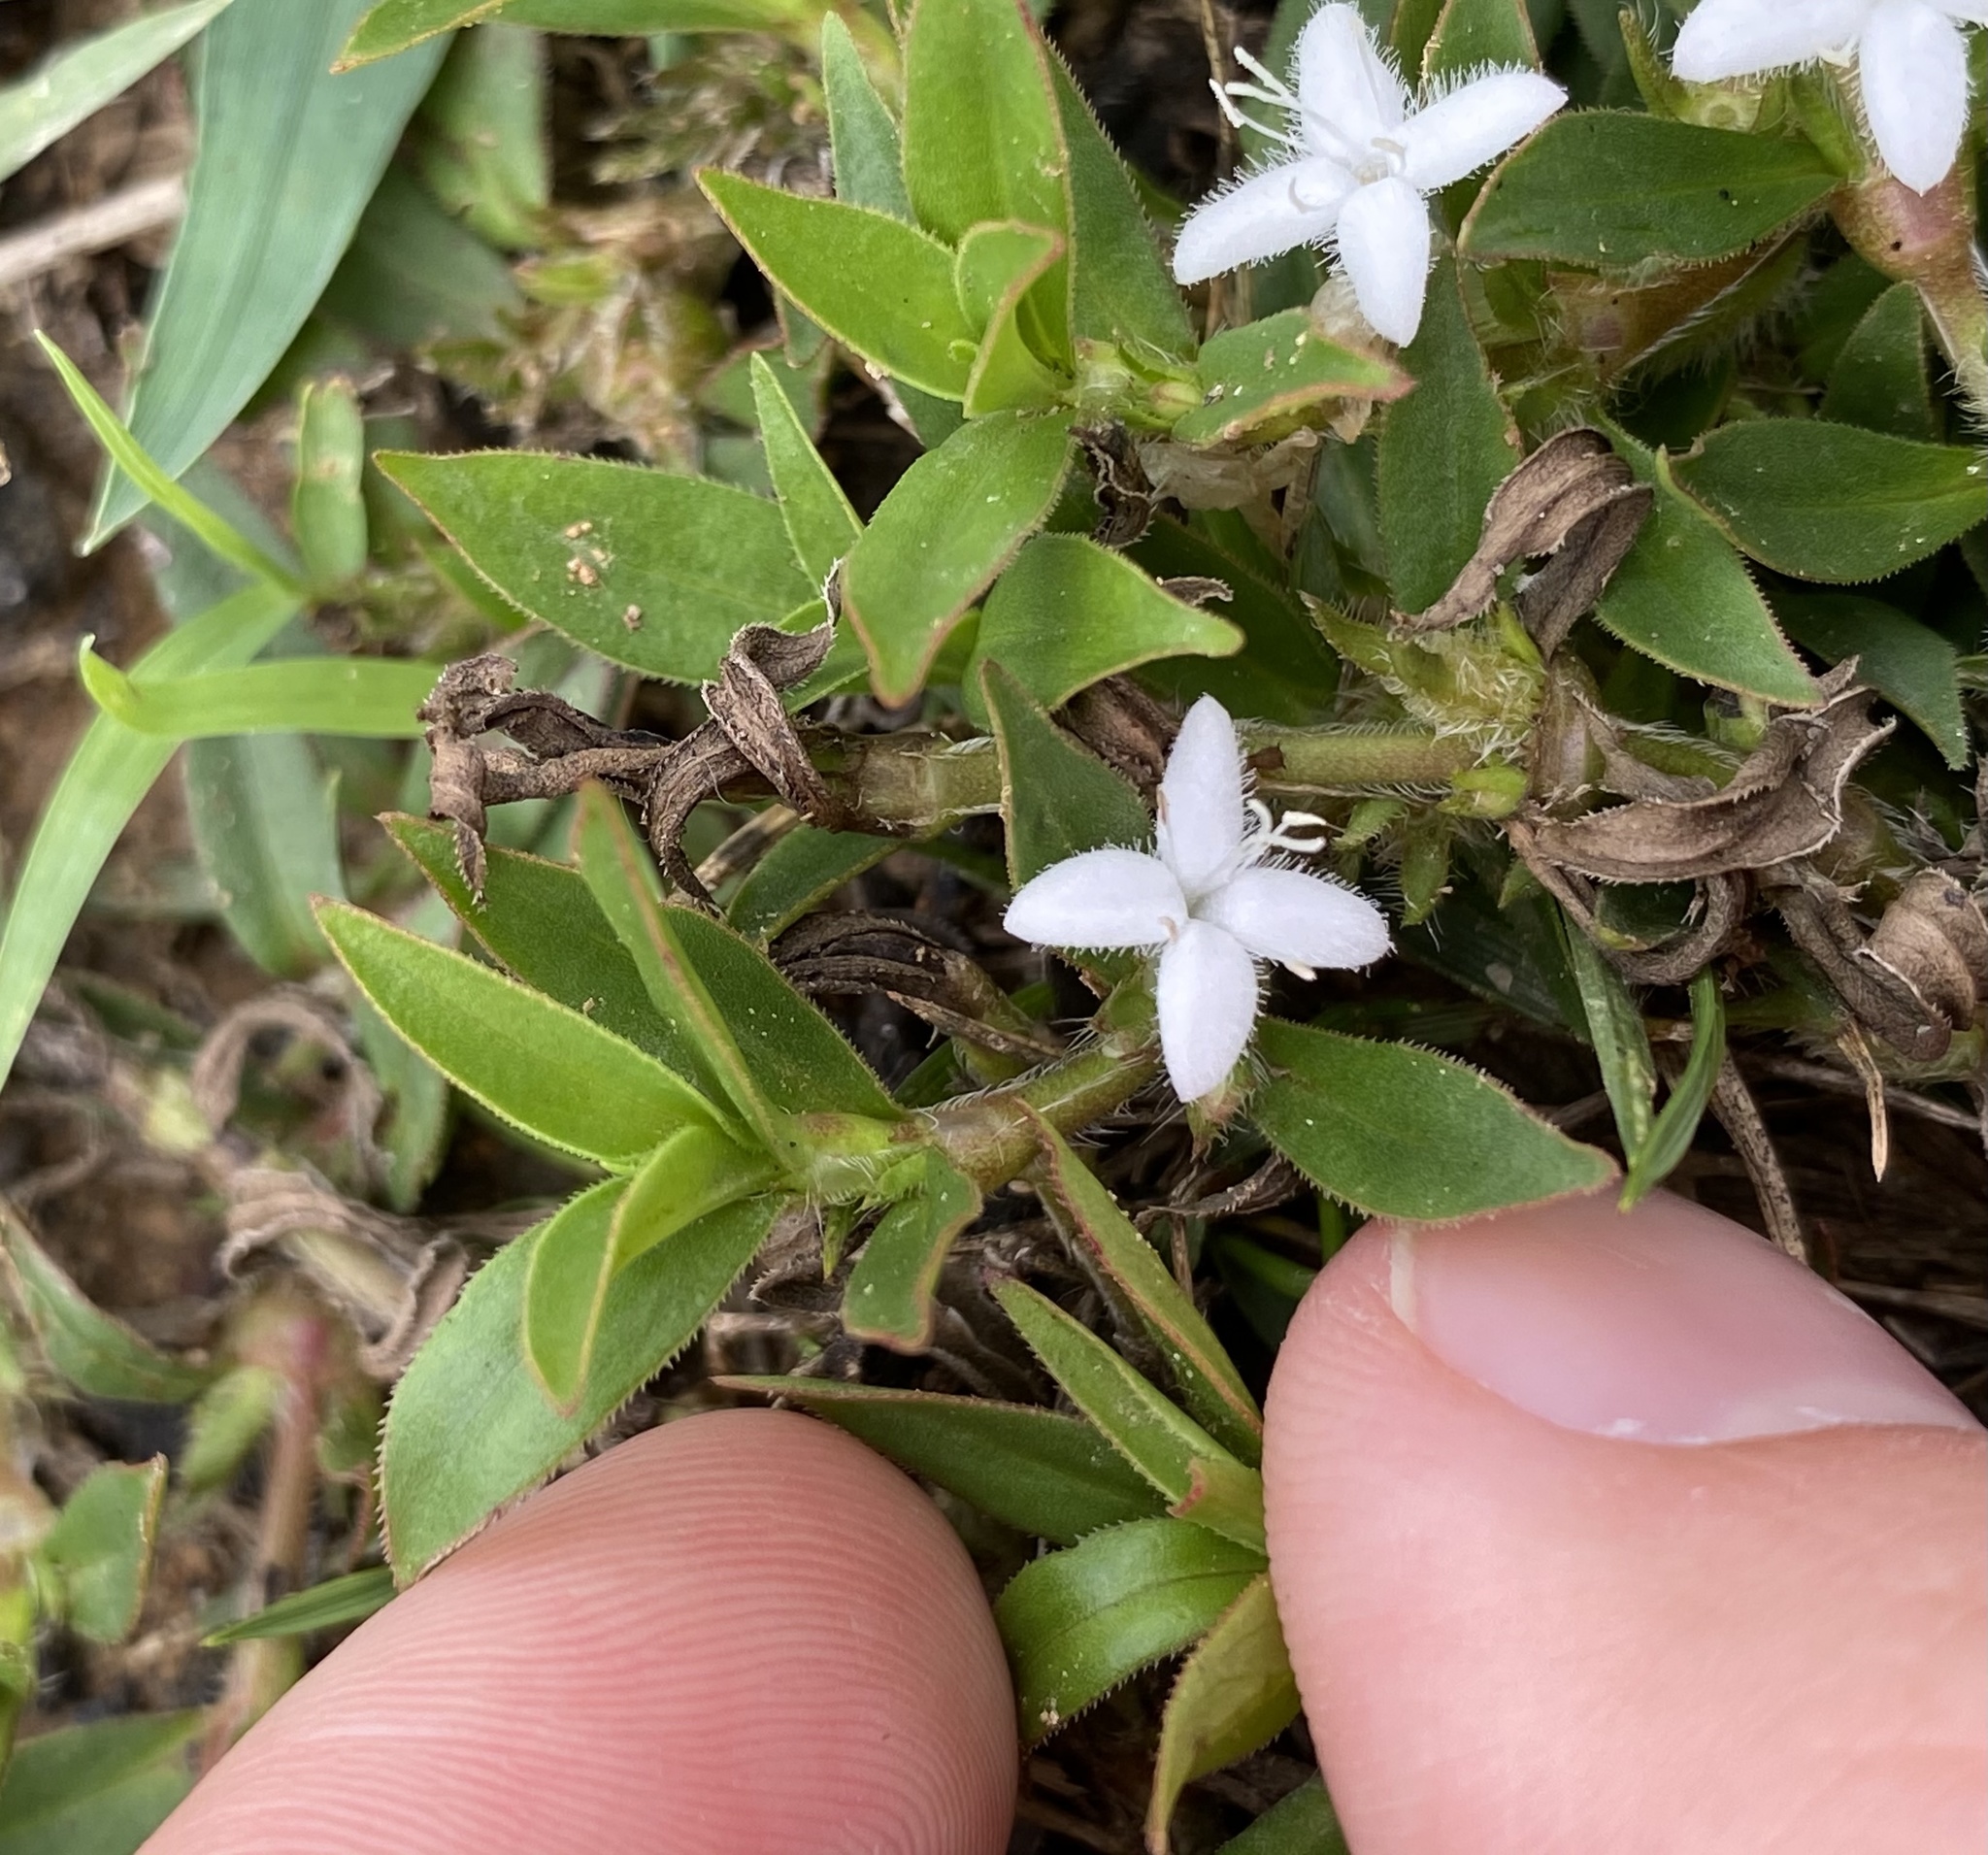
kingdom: Plantae
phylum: Tracheophyta
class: Magnoliopsida
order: Gentianales
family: Rubiaceae
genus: Diodia
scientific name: Diodia virginiana
